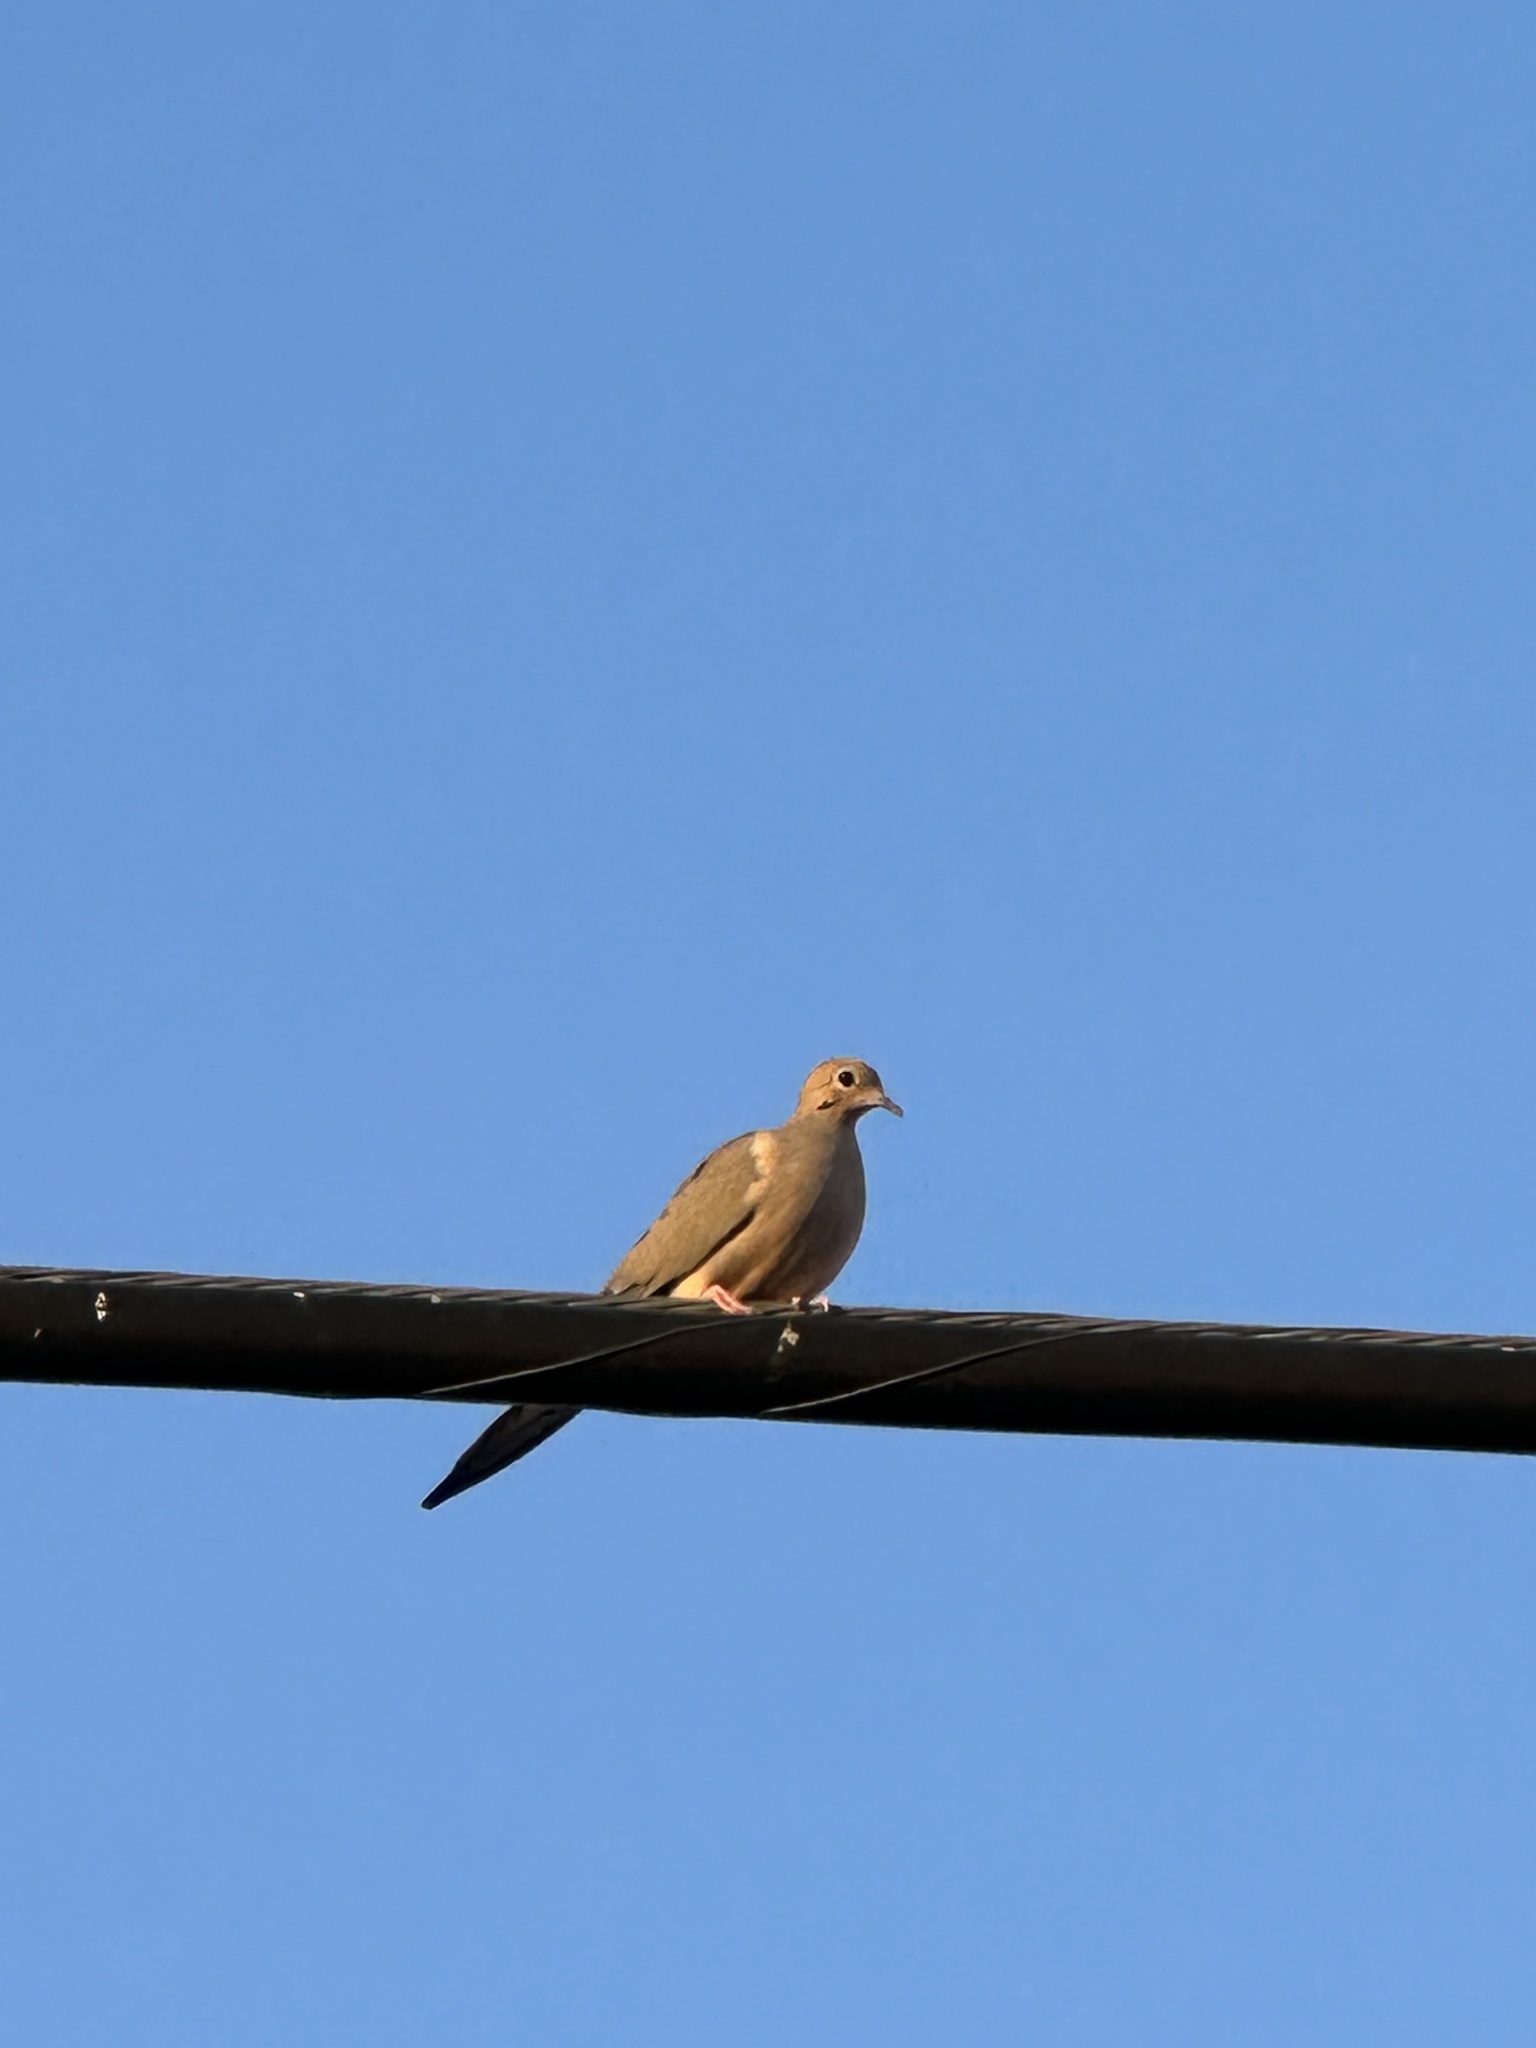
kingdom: Animalia
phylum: Chordata
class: Aves
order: Columbiformes
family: Columbidae
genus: Zenaida
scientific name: Zenaida macroura
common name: Mourning dove
